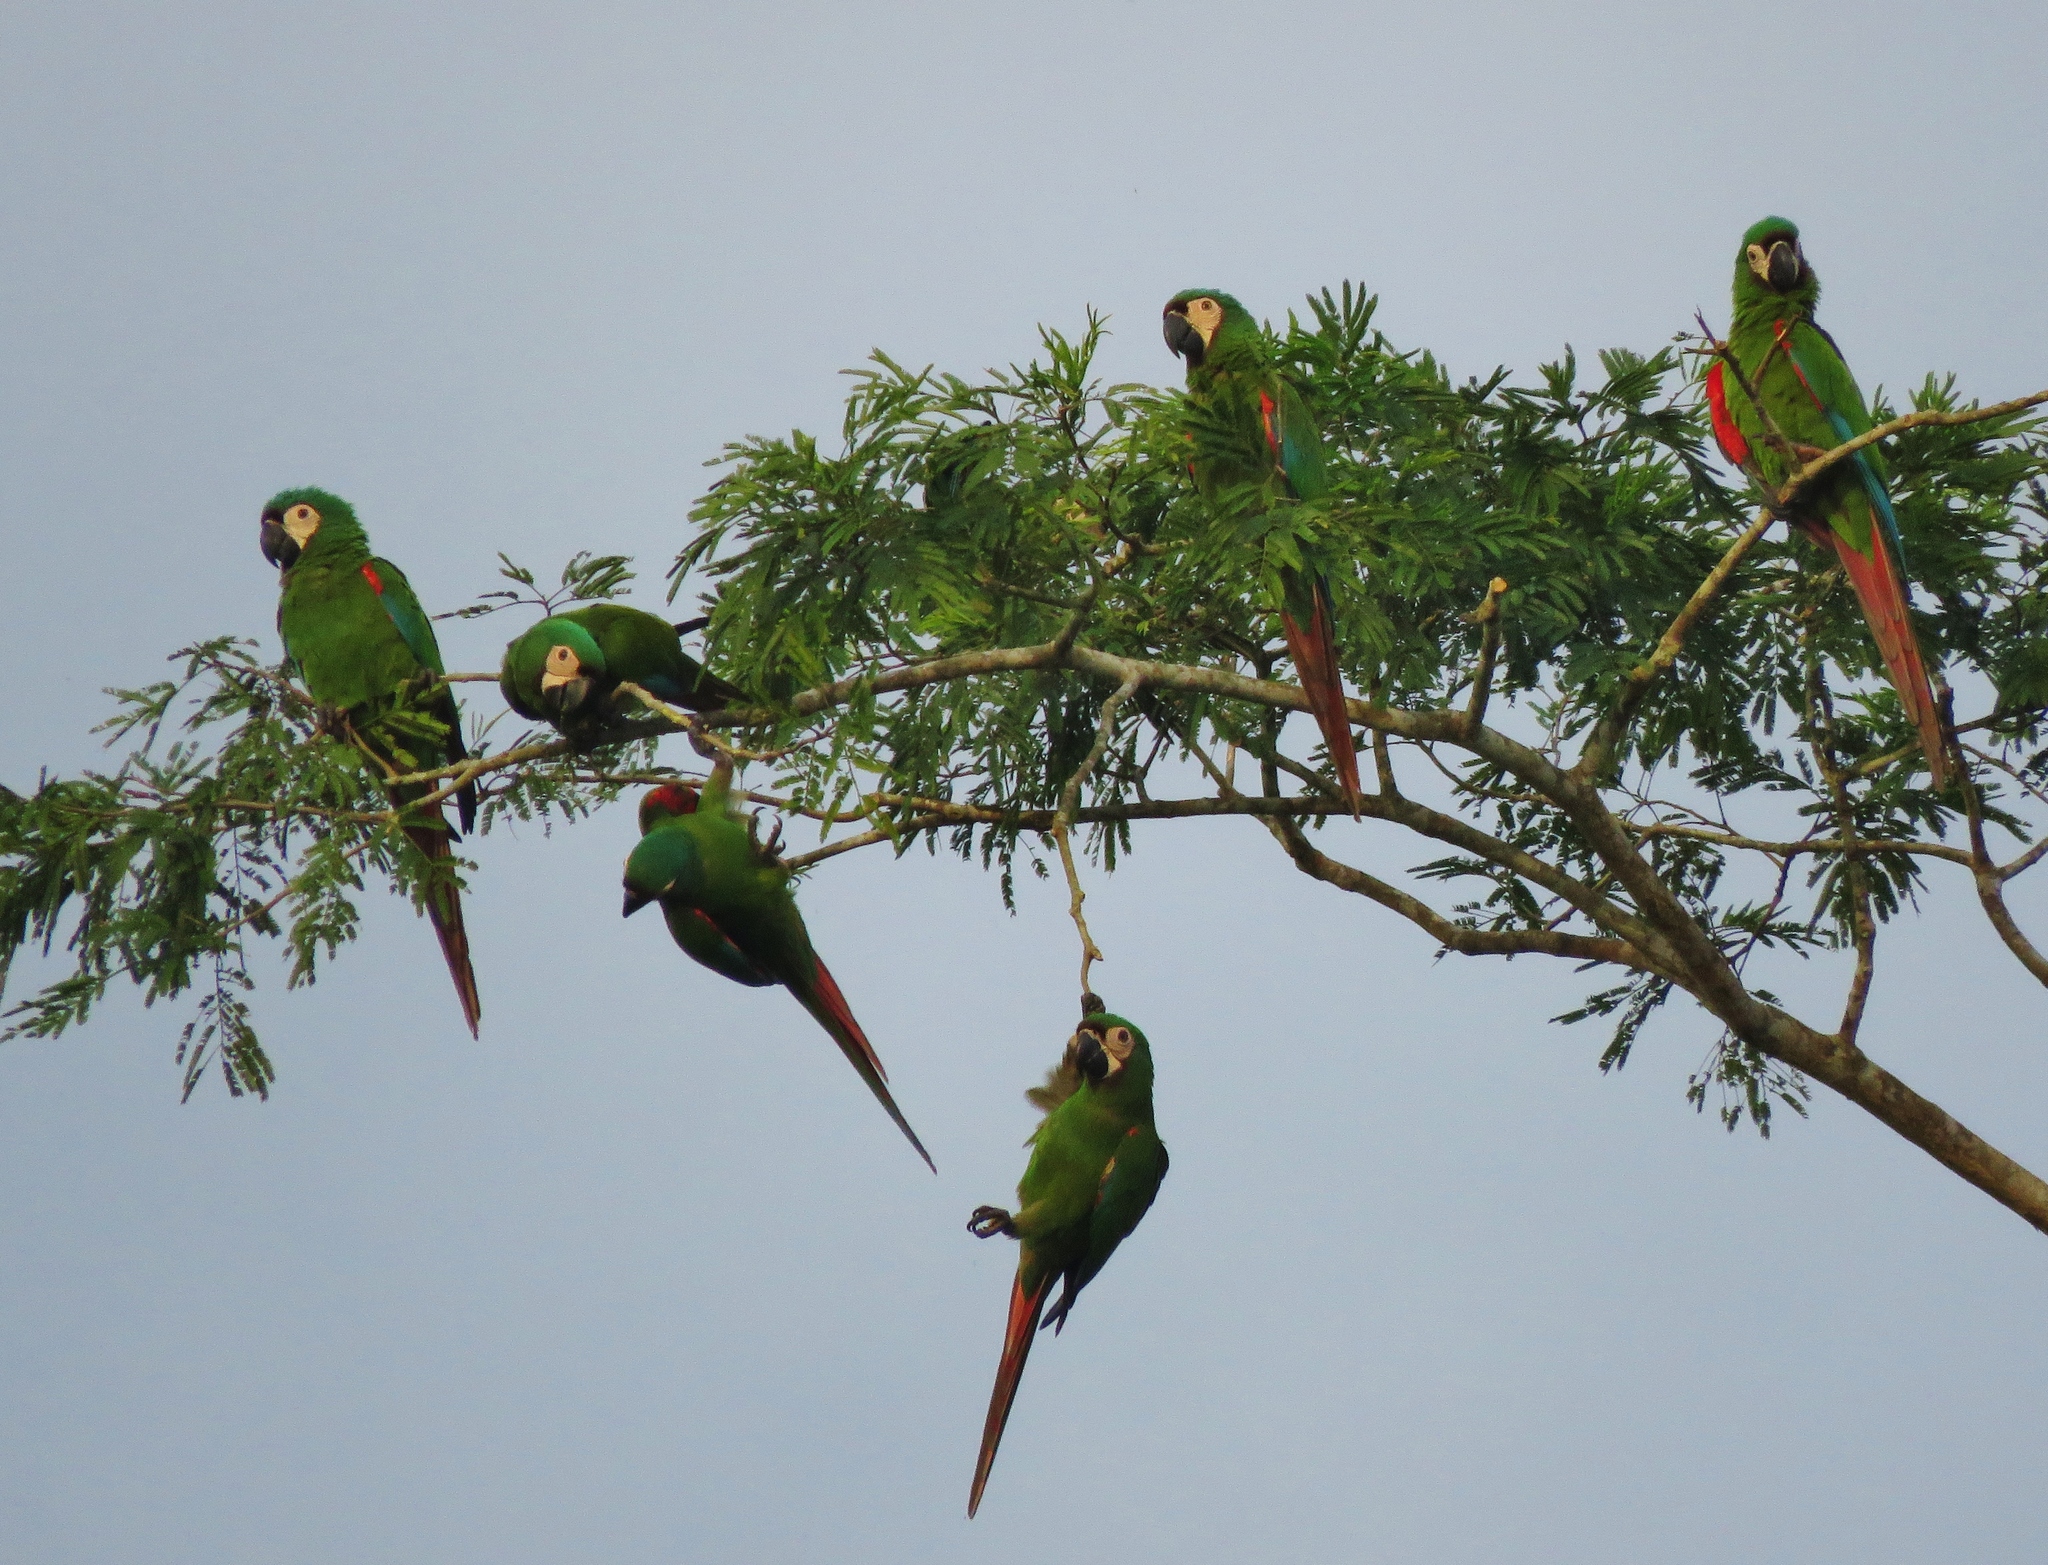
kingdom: Animalia
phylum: Chordata
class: Aves
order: Psittaciformes
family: Psittacidae
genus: Ara
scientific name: Ara severus
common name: Chestnut-fronted macaw
